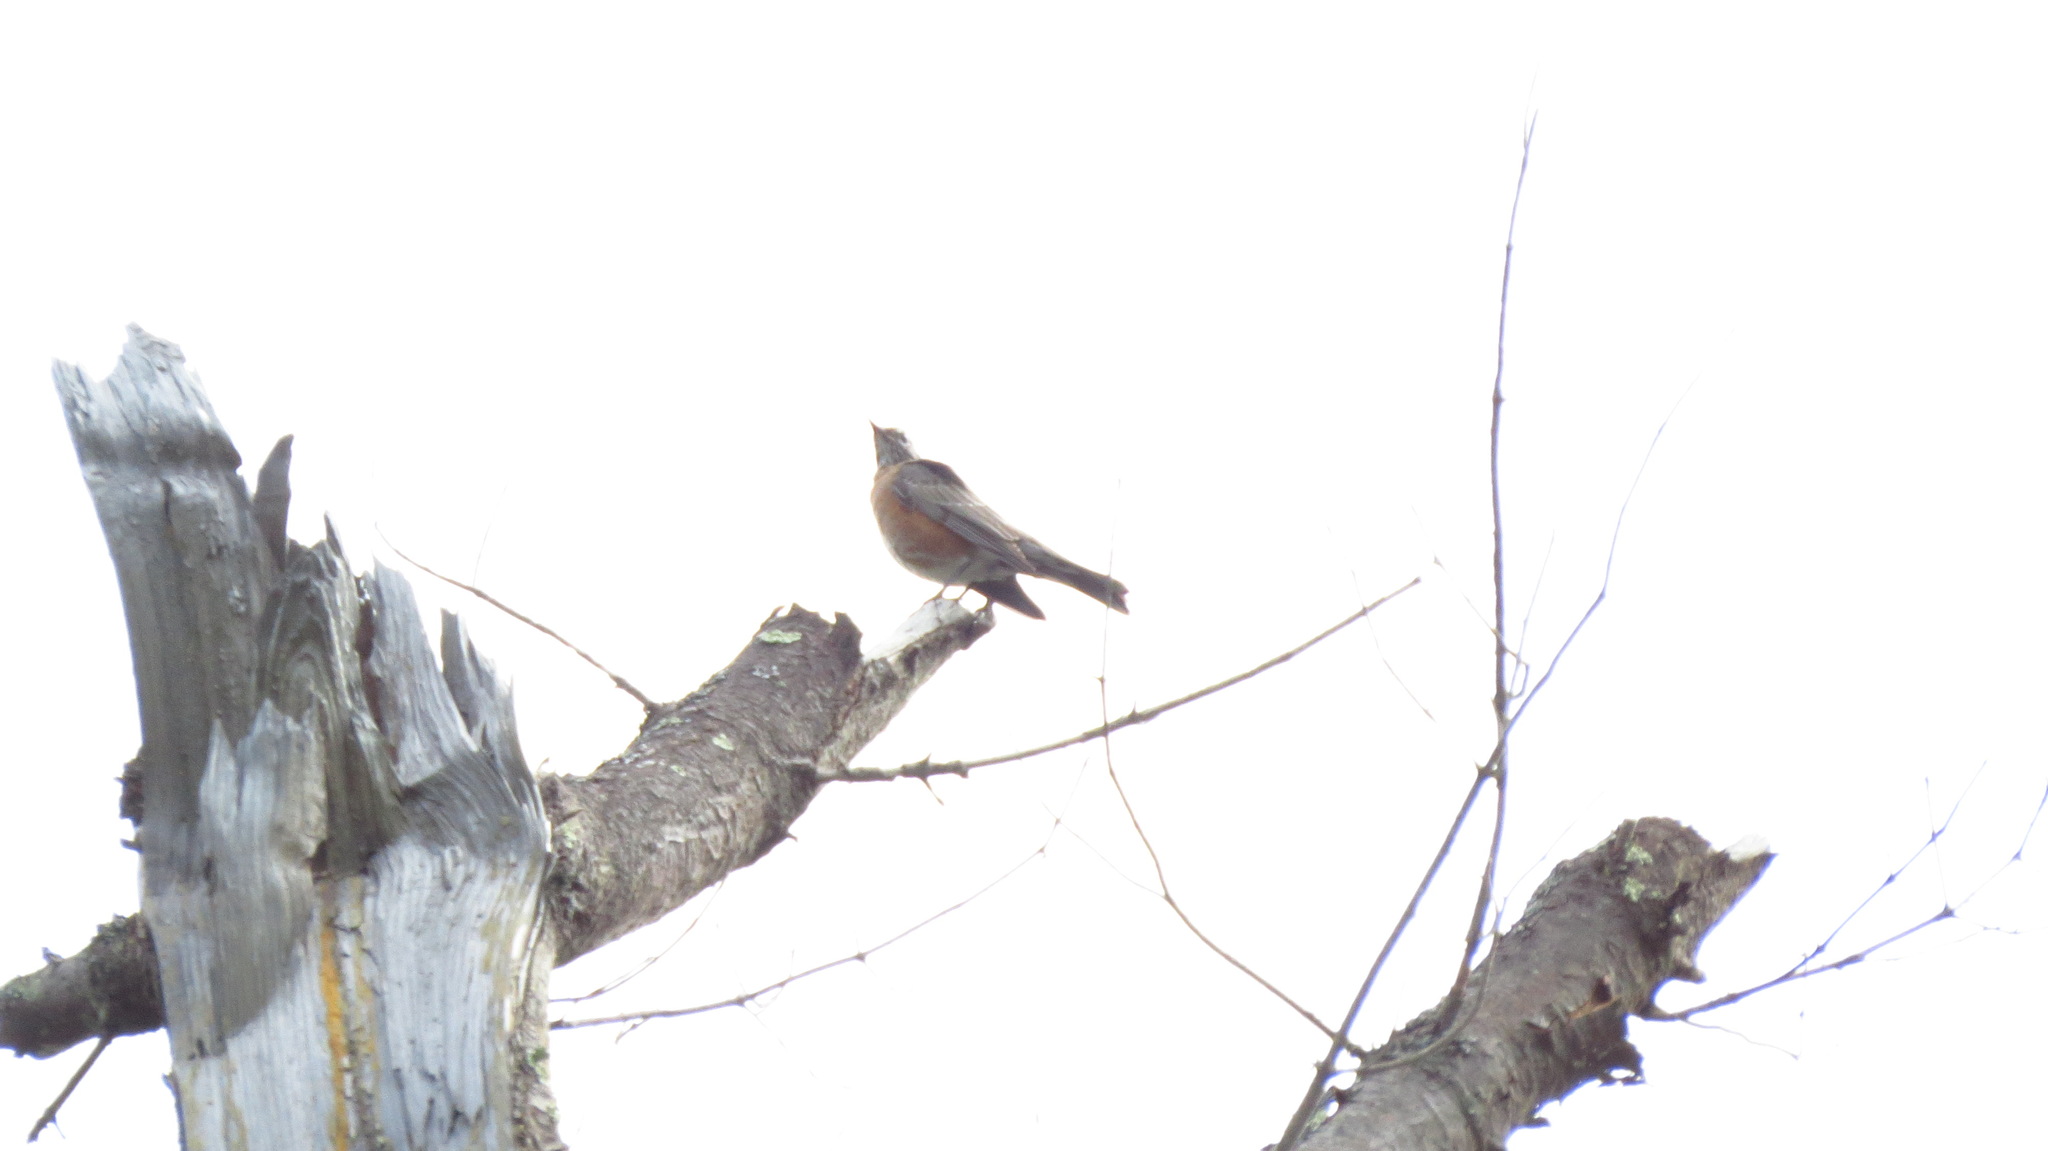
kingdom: Animalia
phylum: Chordata
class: Aves
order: Passeriformes
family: Turdidae
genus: Turdus
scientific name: Turdus migratorius
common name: American robin
